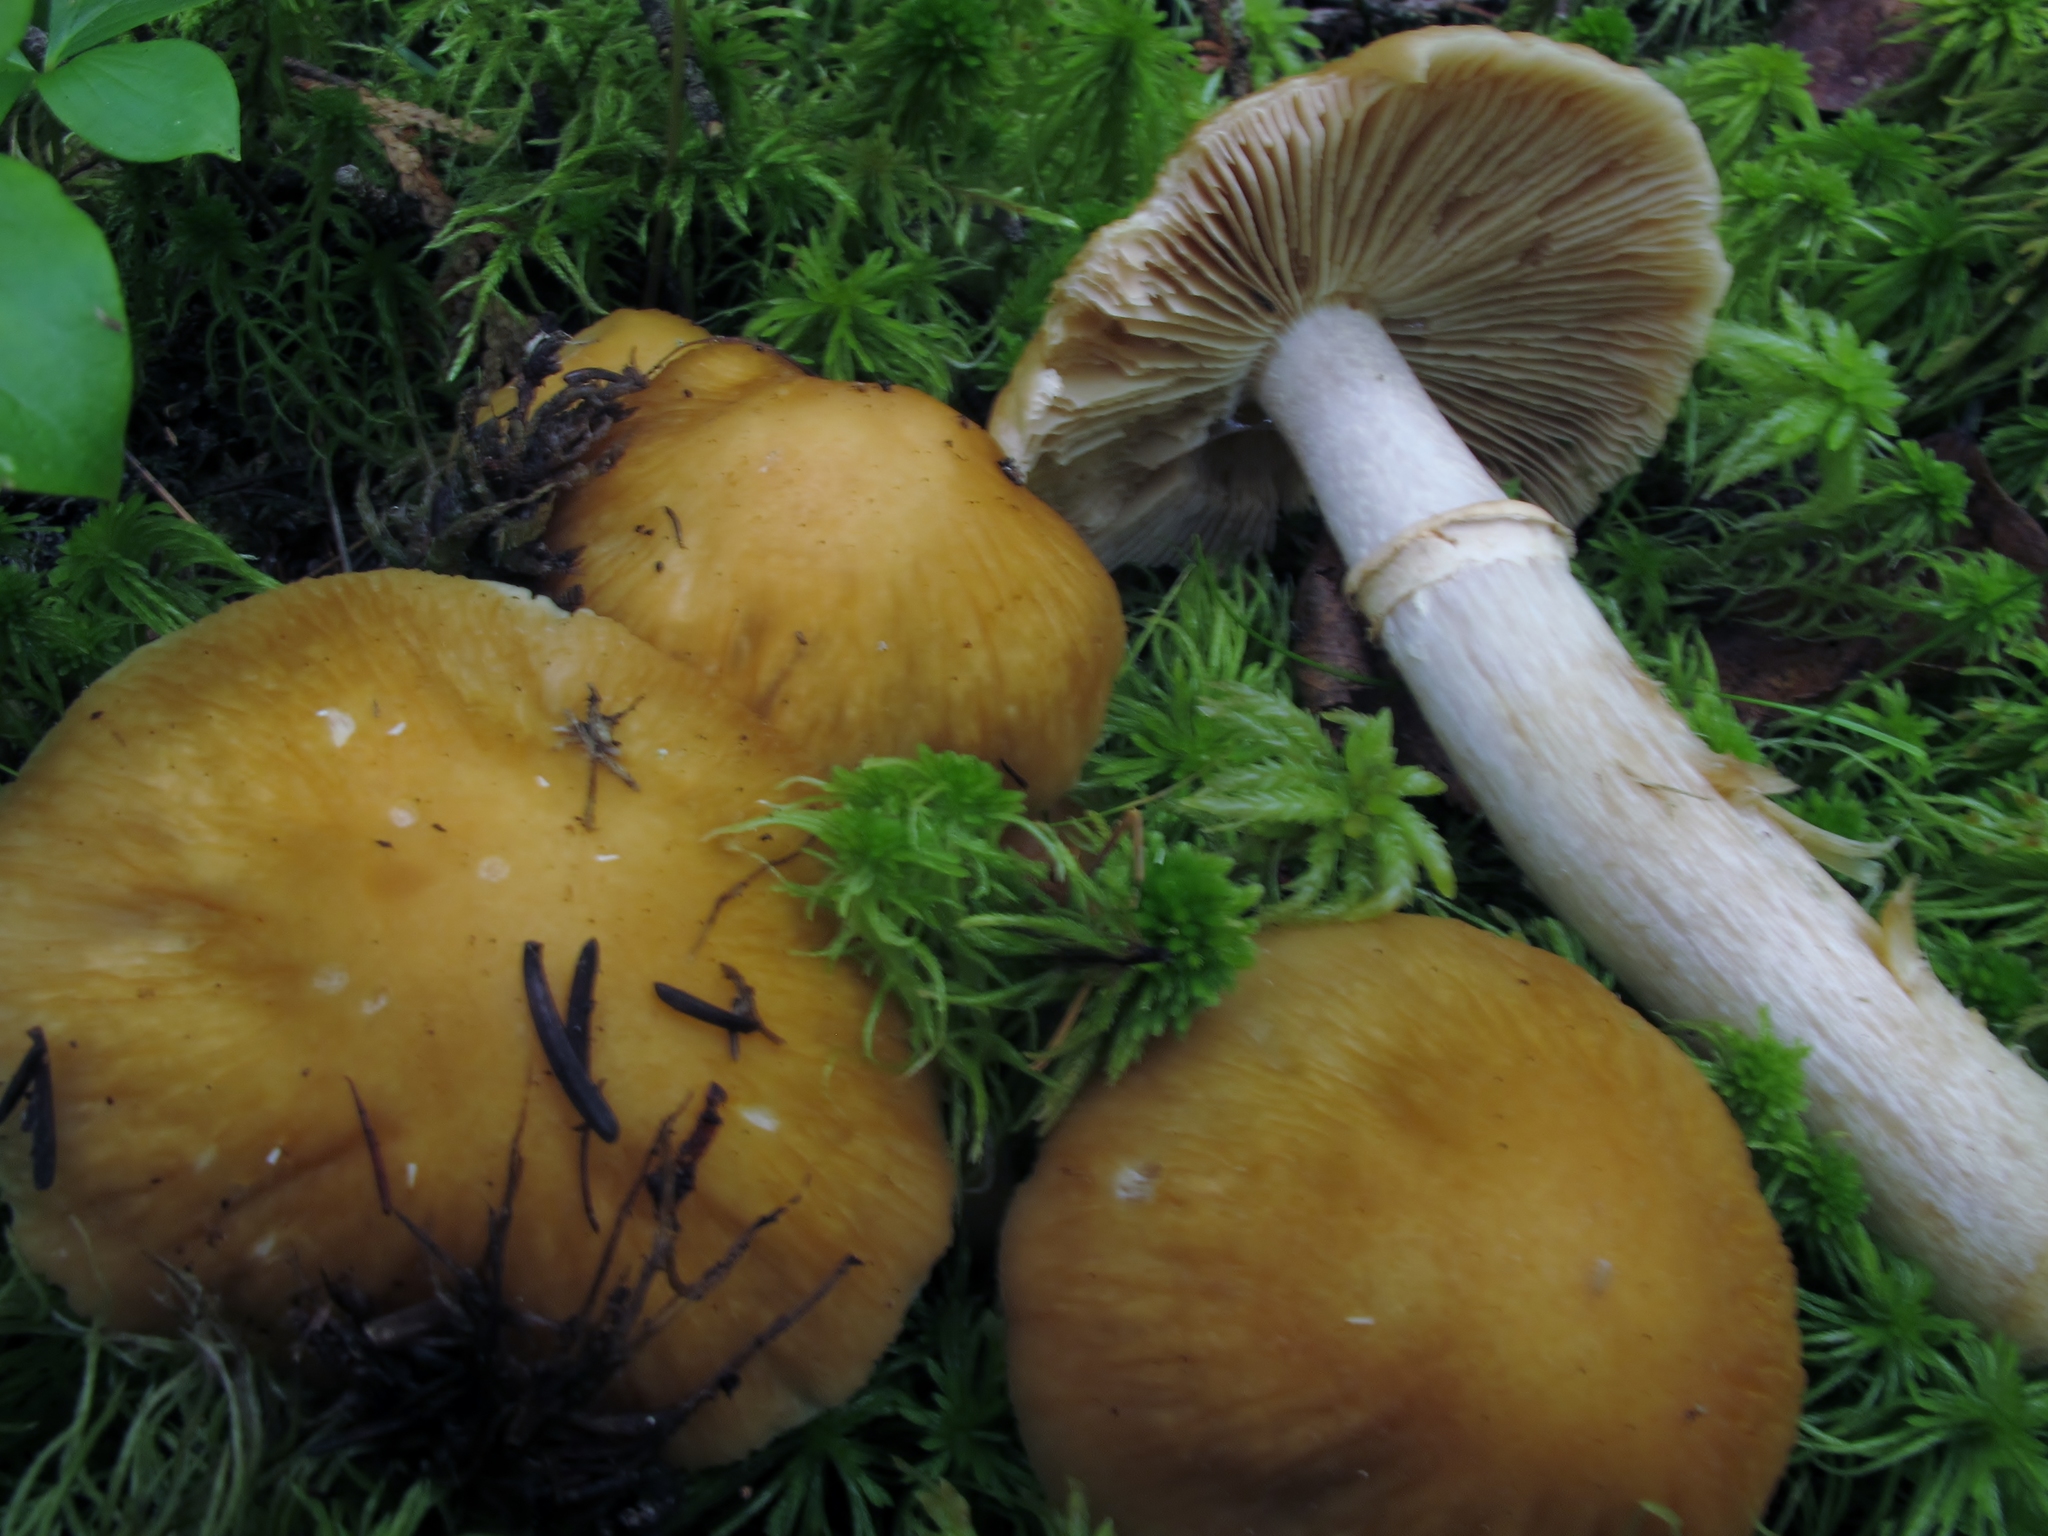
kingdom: Fungi
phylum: Basidiomycota
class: Agaricomycetes
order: Agaricales
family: Cortinariaceae
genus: Cortinarius
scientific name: Cortinarius caperatus
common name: The gypsy
